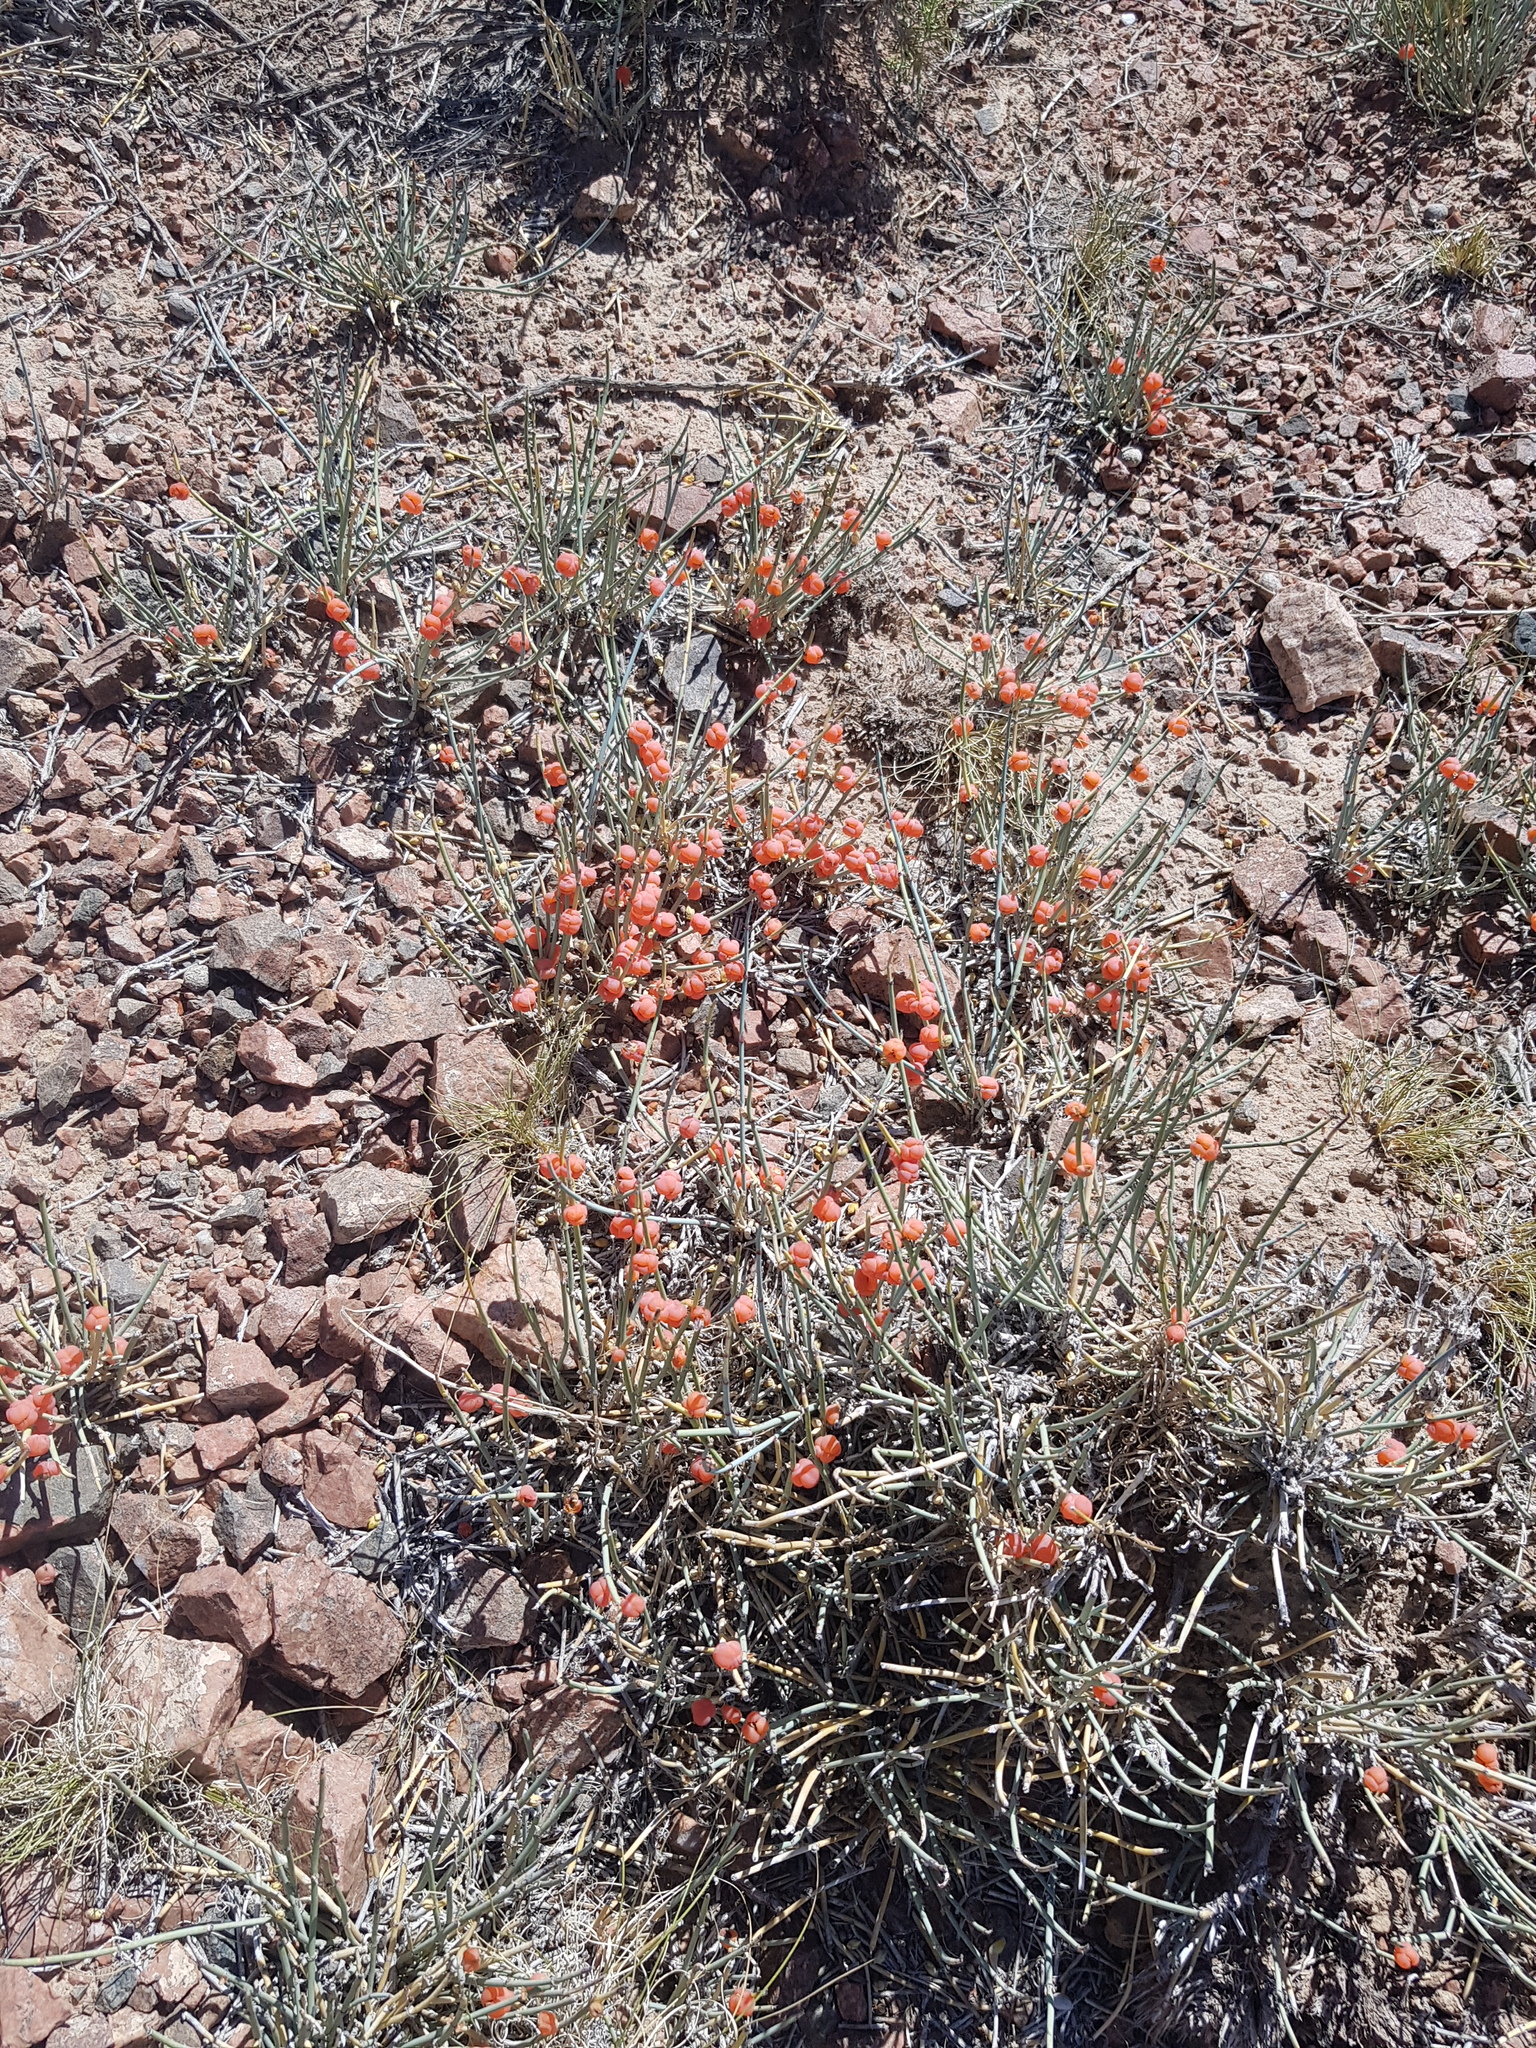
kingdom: Plantae
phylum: Tracheophyta
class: Gnetopsida
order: Ephedrales
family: Ephedraceae
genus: Ephedra
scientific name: Ephedra equisetina
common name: Mongolian ephedra
